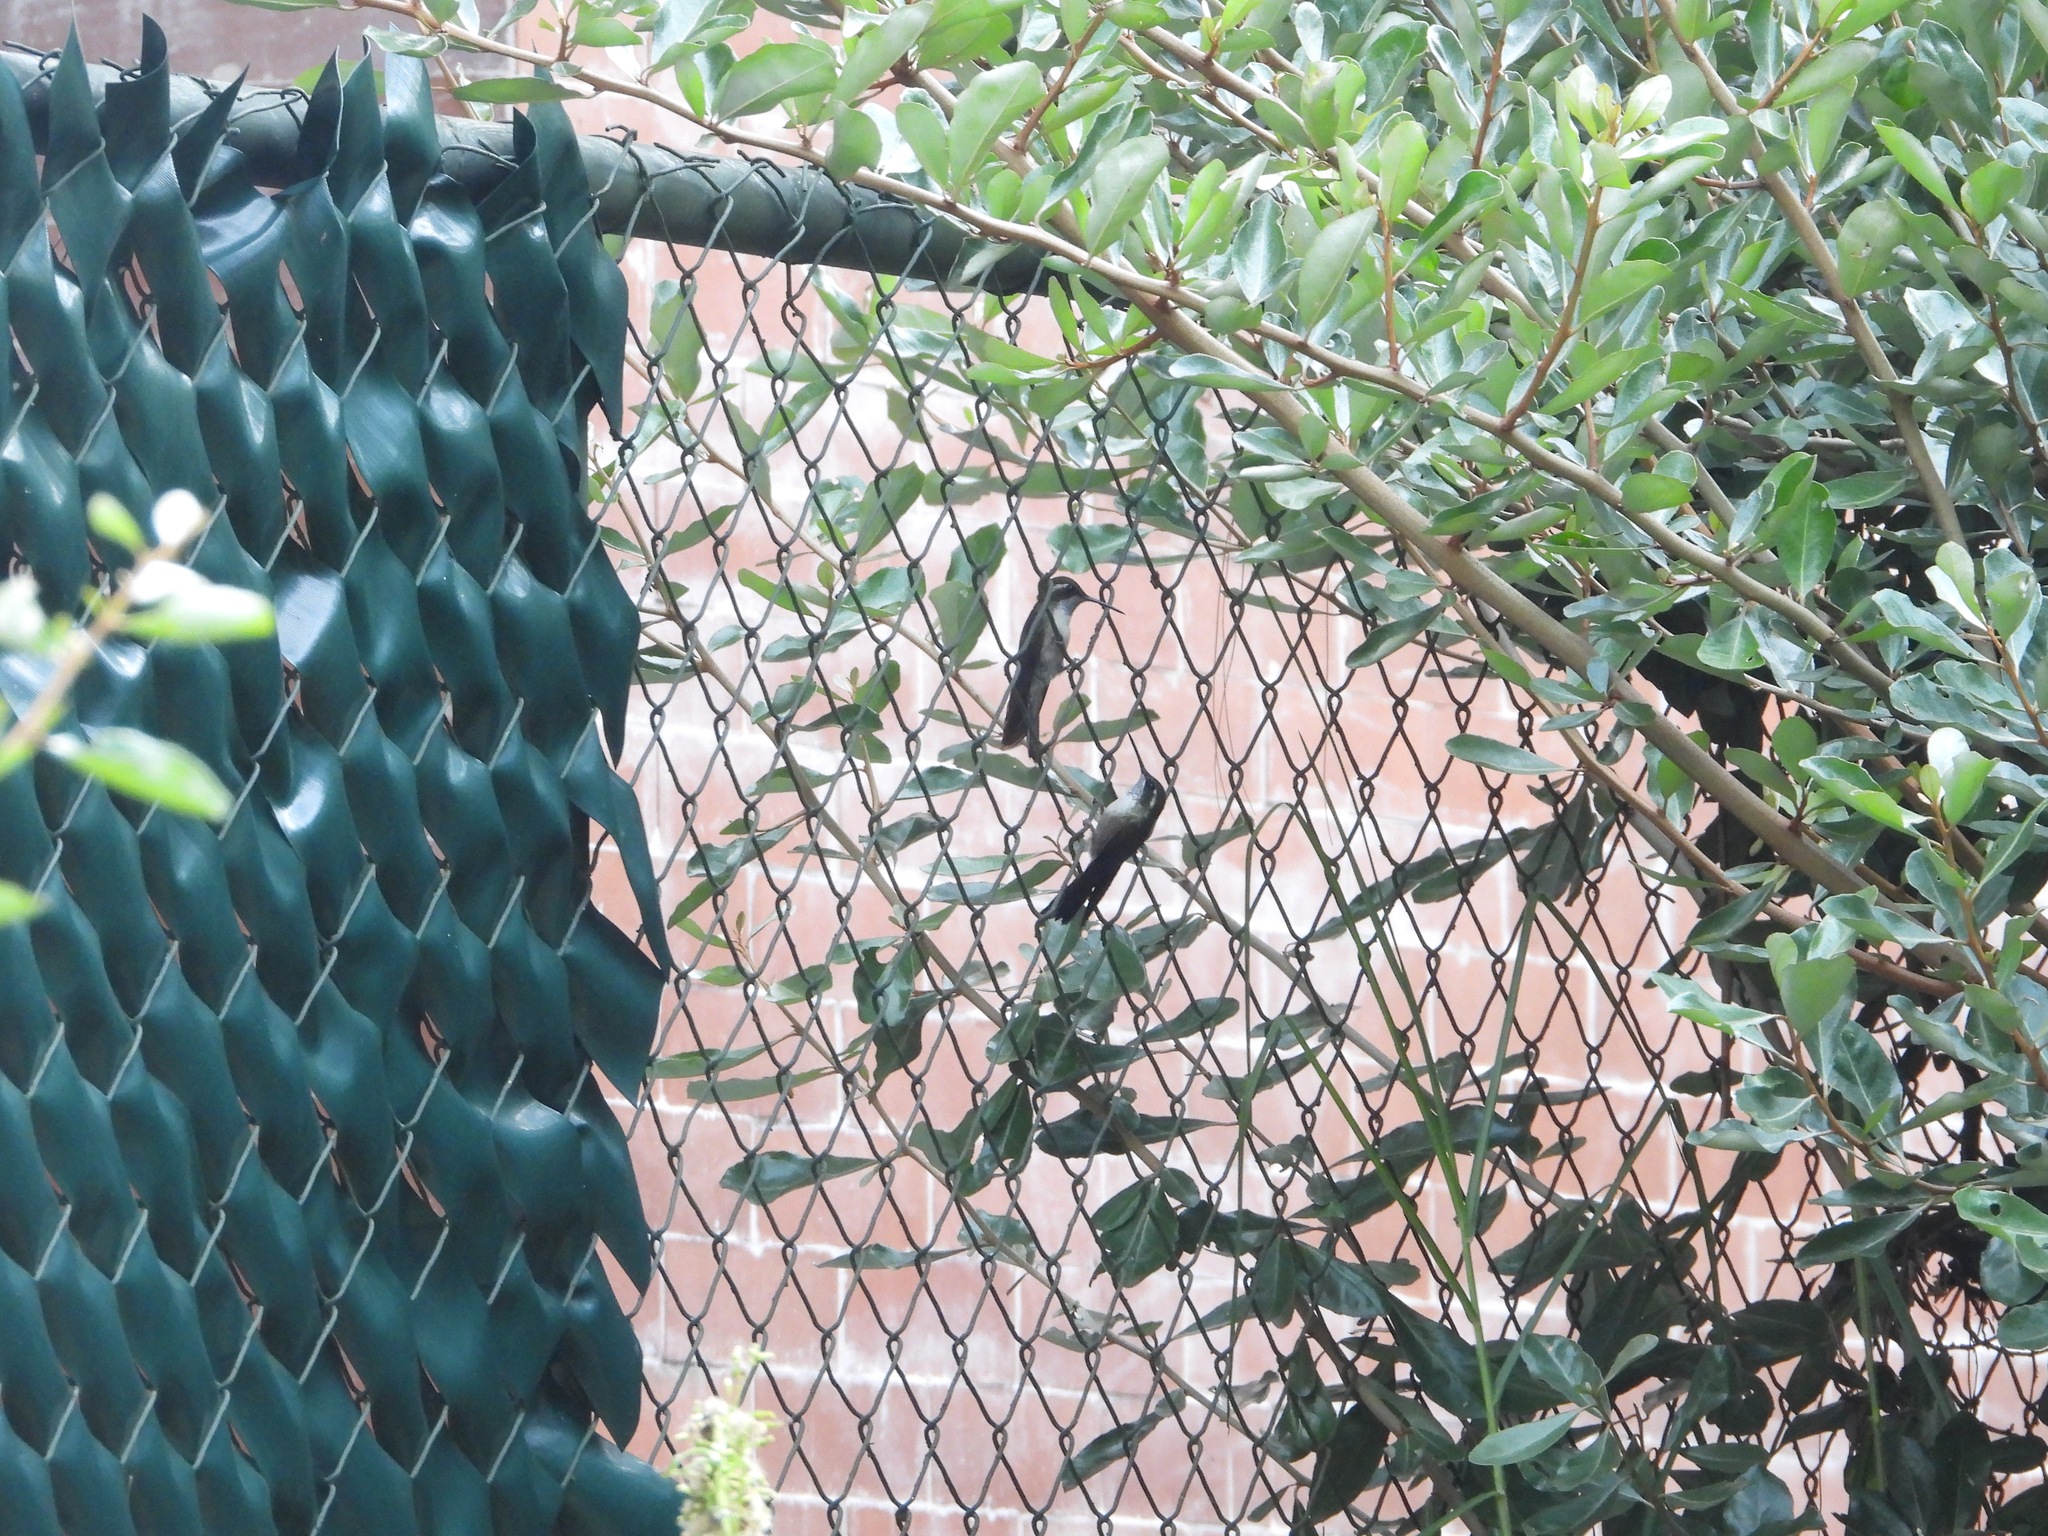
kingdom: Animalia
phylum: Chordata
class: Aves
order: Apodiformes
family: Trochilidae
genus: Lampornis
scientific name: Lampornis viridipallens
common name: Green-throated mountain-gem
